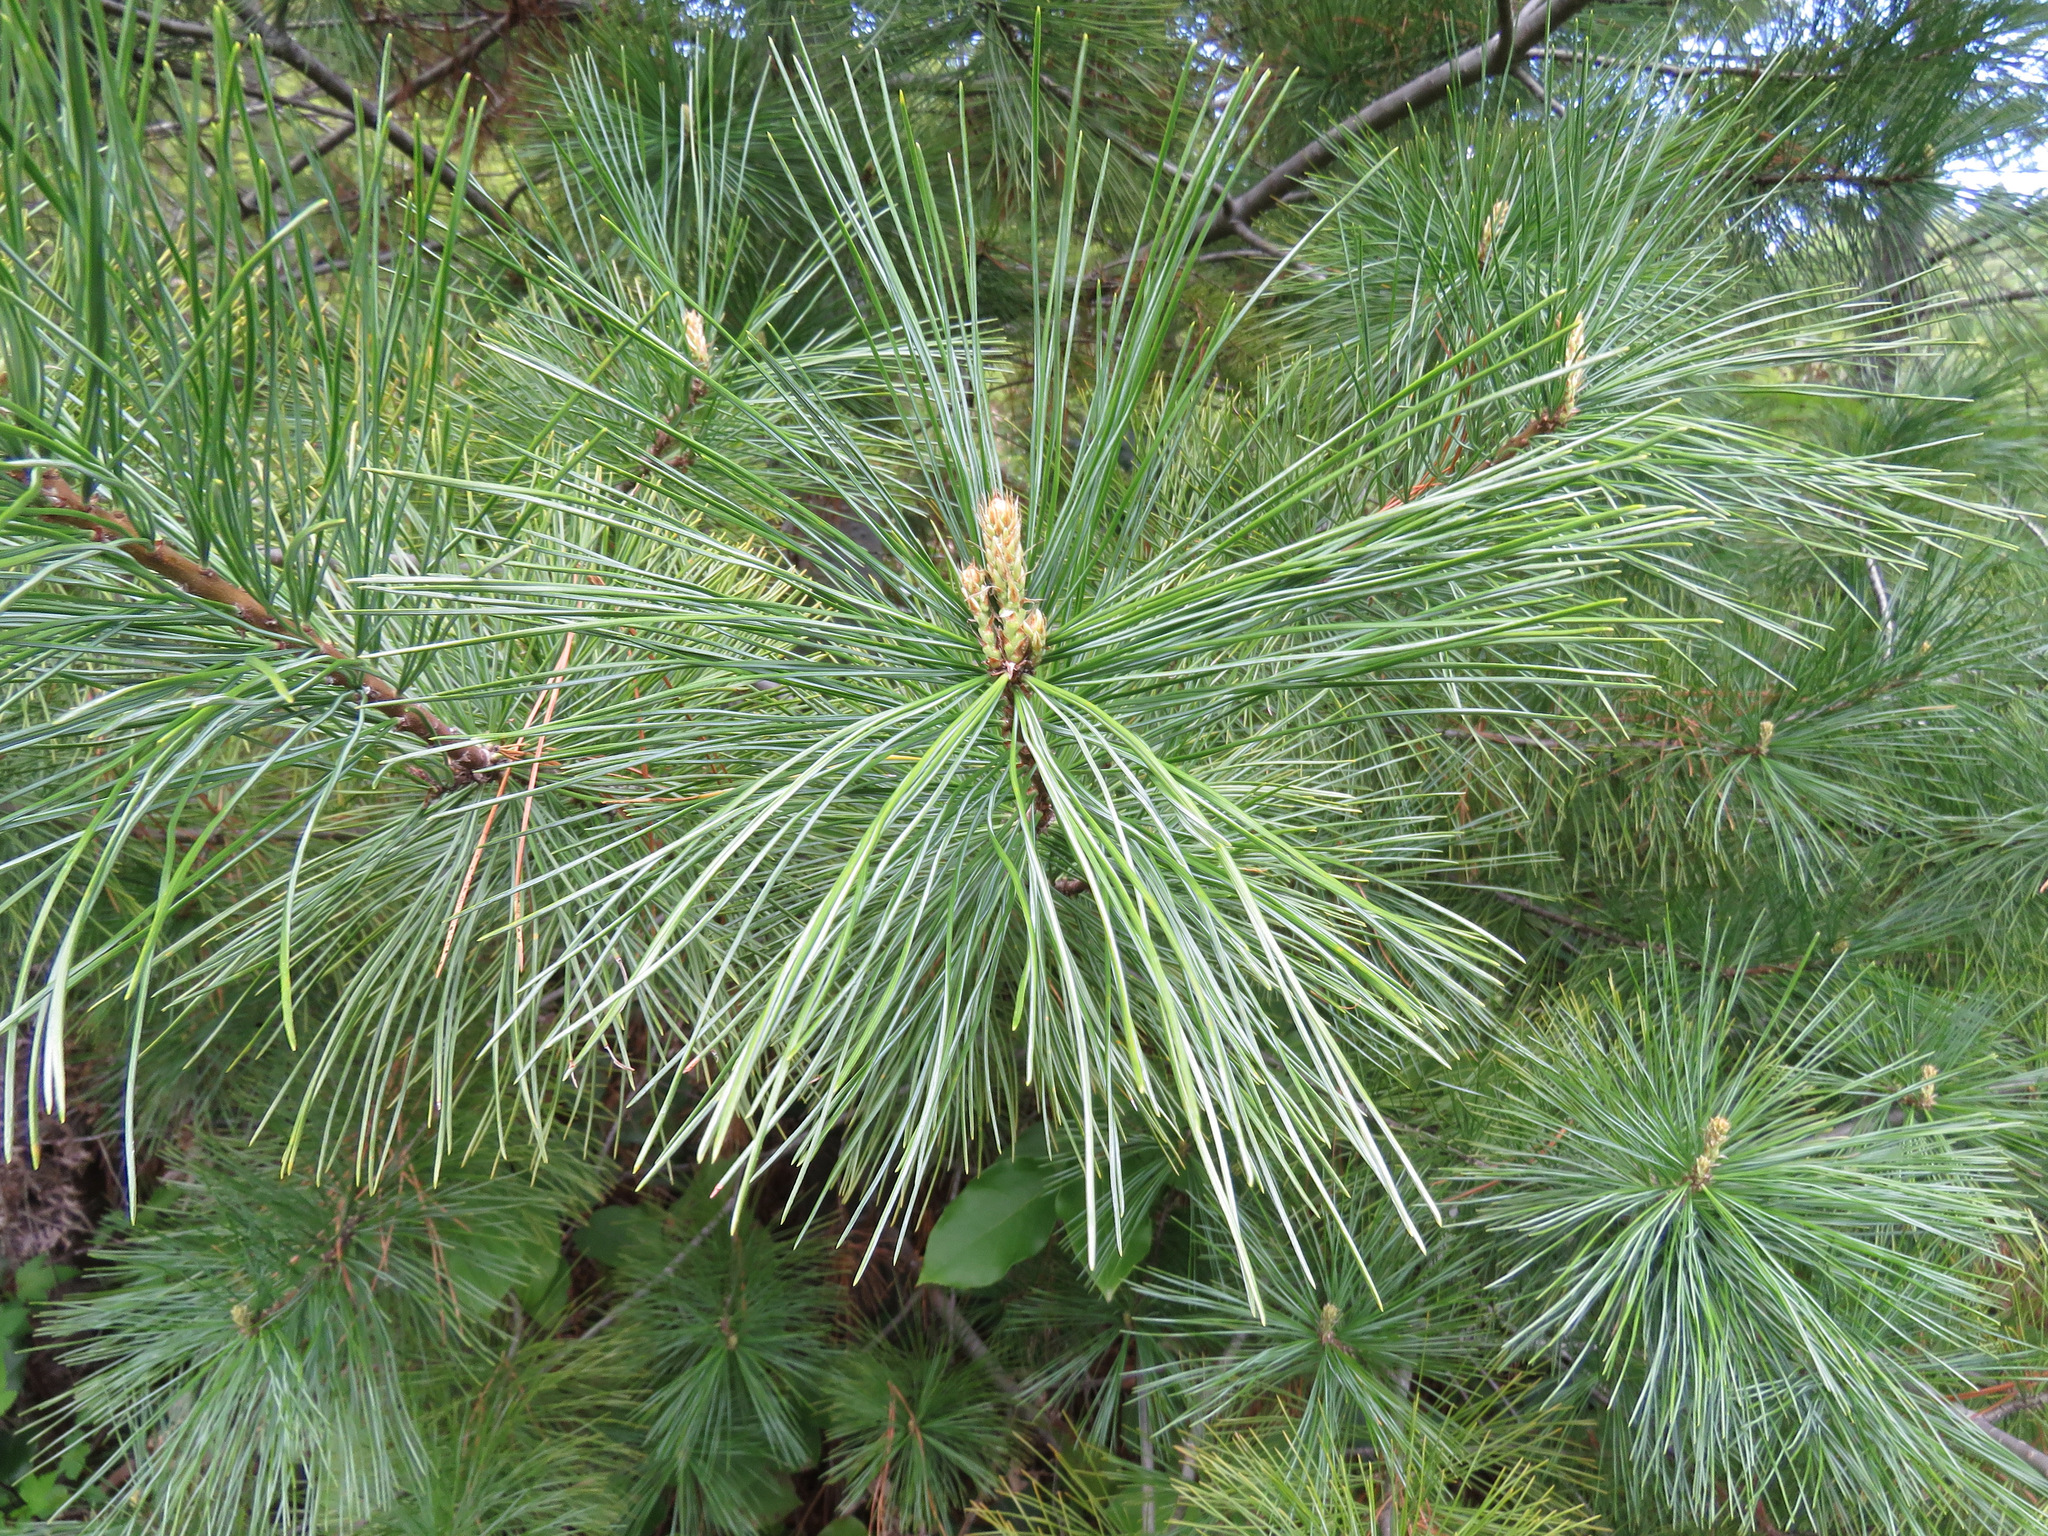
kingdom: Plantae
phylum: Tracheophyta
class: Pinopsida
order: Pinales
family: Pinaceae
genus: Pinus
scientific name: Pinus monticola
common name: Western white pine
